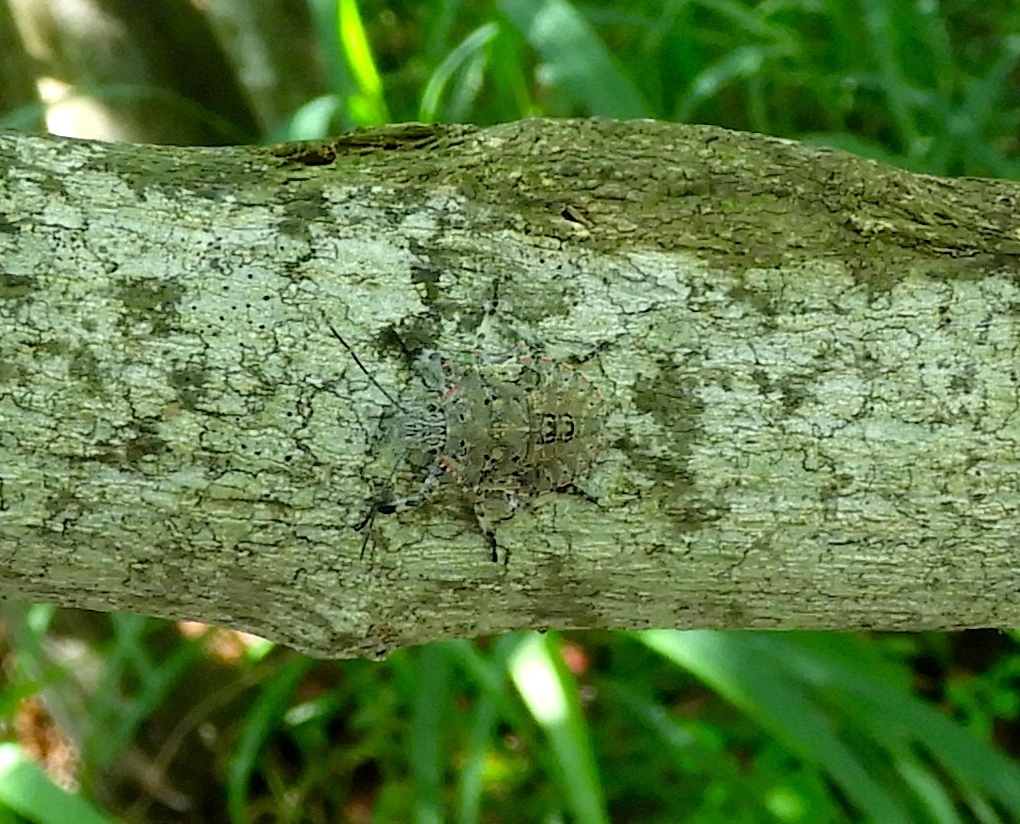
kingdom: Animalia
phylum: Arthropoda
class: Insecta
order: Hemiptera
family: Pentatomidae
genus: Brochymena
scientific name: Brochymena
